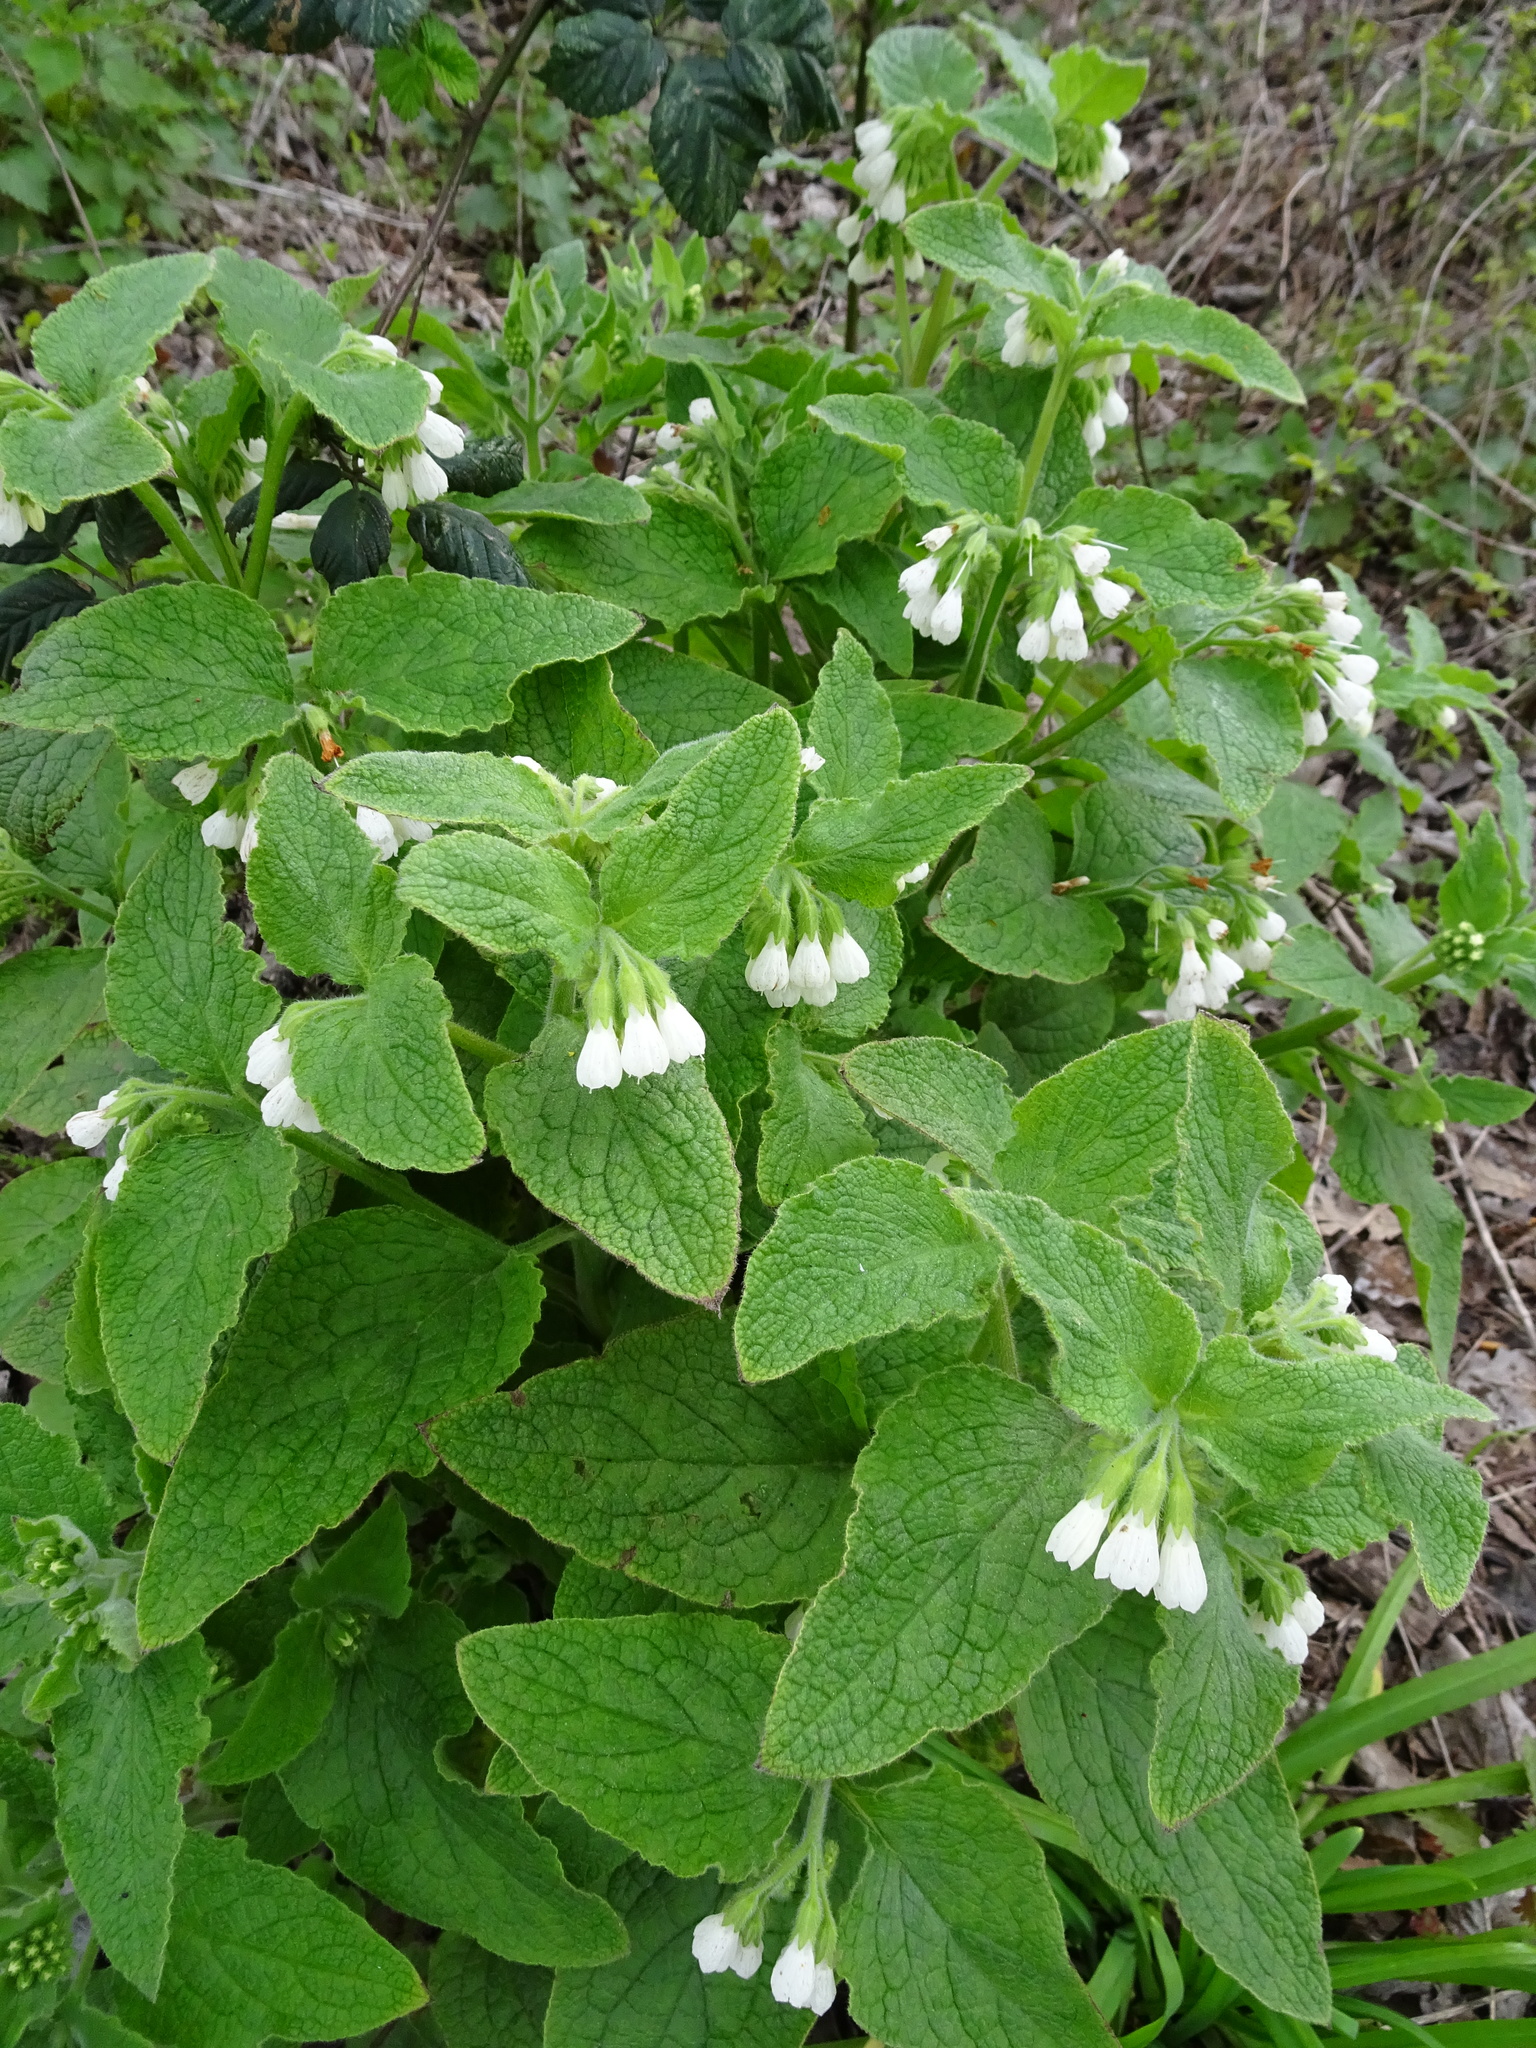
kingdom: Plantae
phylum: Tracheophyta
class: Magnoliopsida
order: Boraginales
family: Boraginaceae
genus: Symphytum
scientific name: Symphytum orientale
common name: White comfrey
